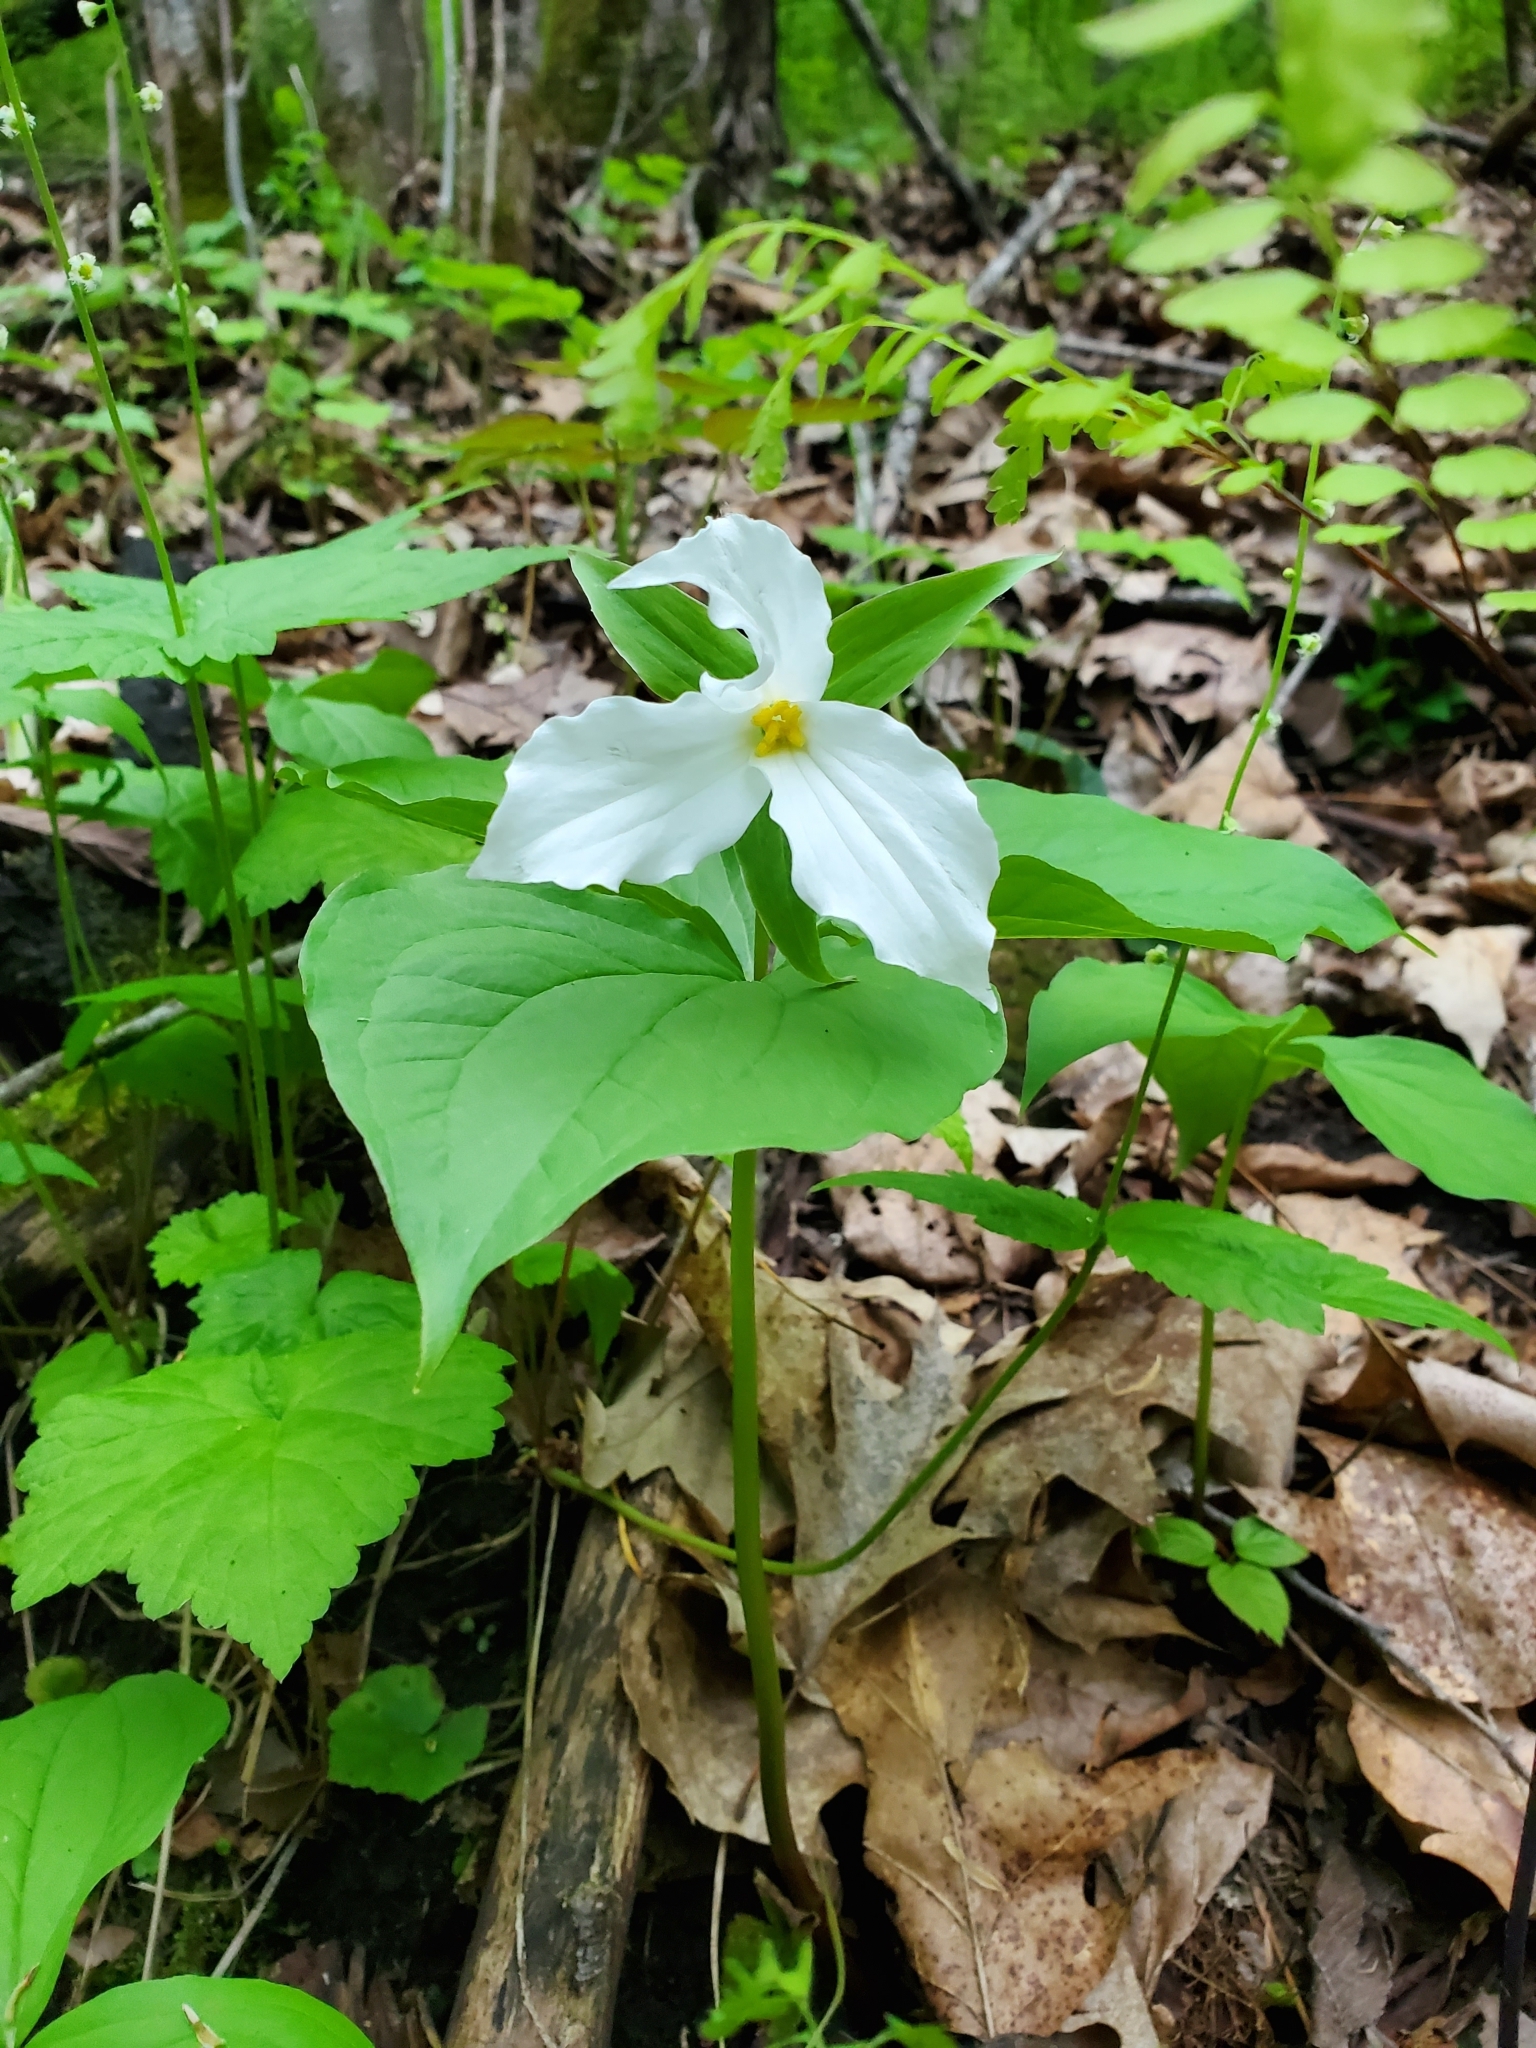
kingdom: Plantae
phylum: Tracheophyta
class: Liliopsida
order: Liliales
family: Melanthiaceae
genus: Trillium
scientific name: Trillium grandiflorum
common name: Great white trillium
